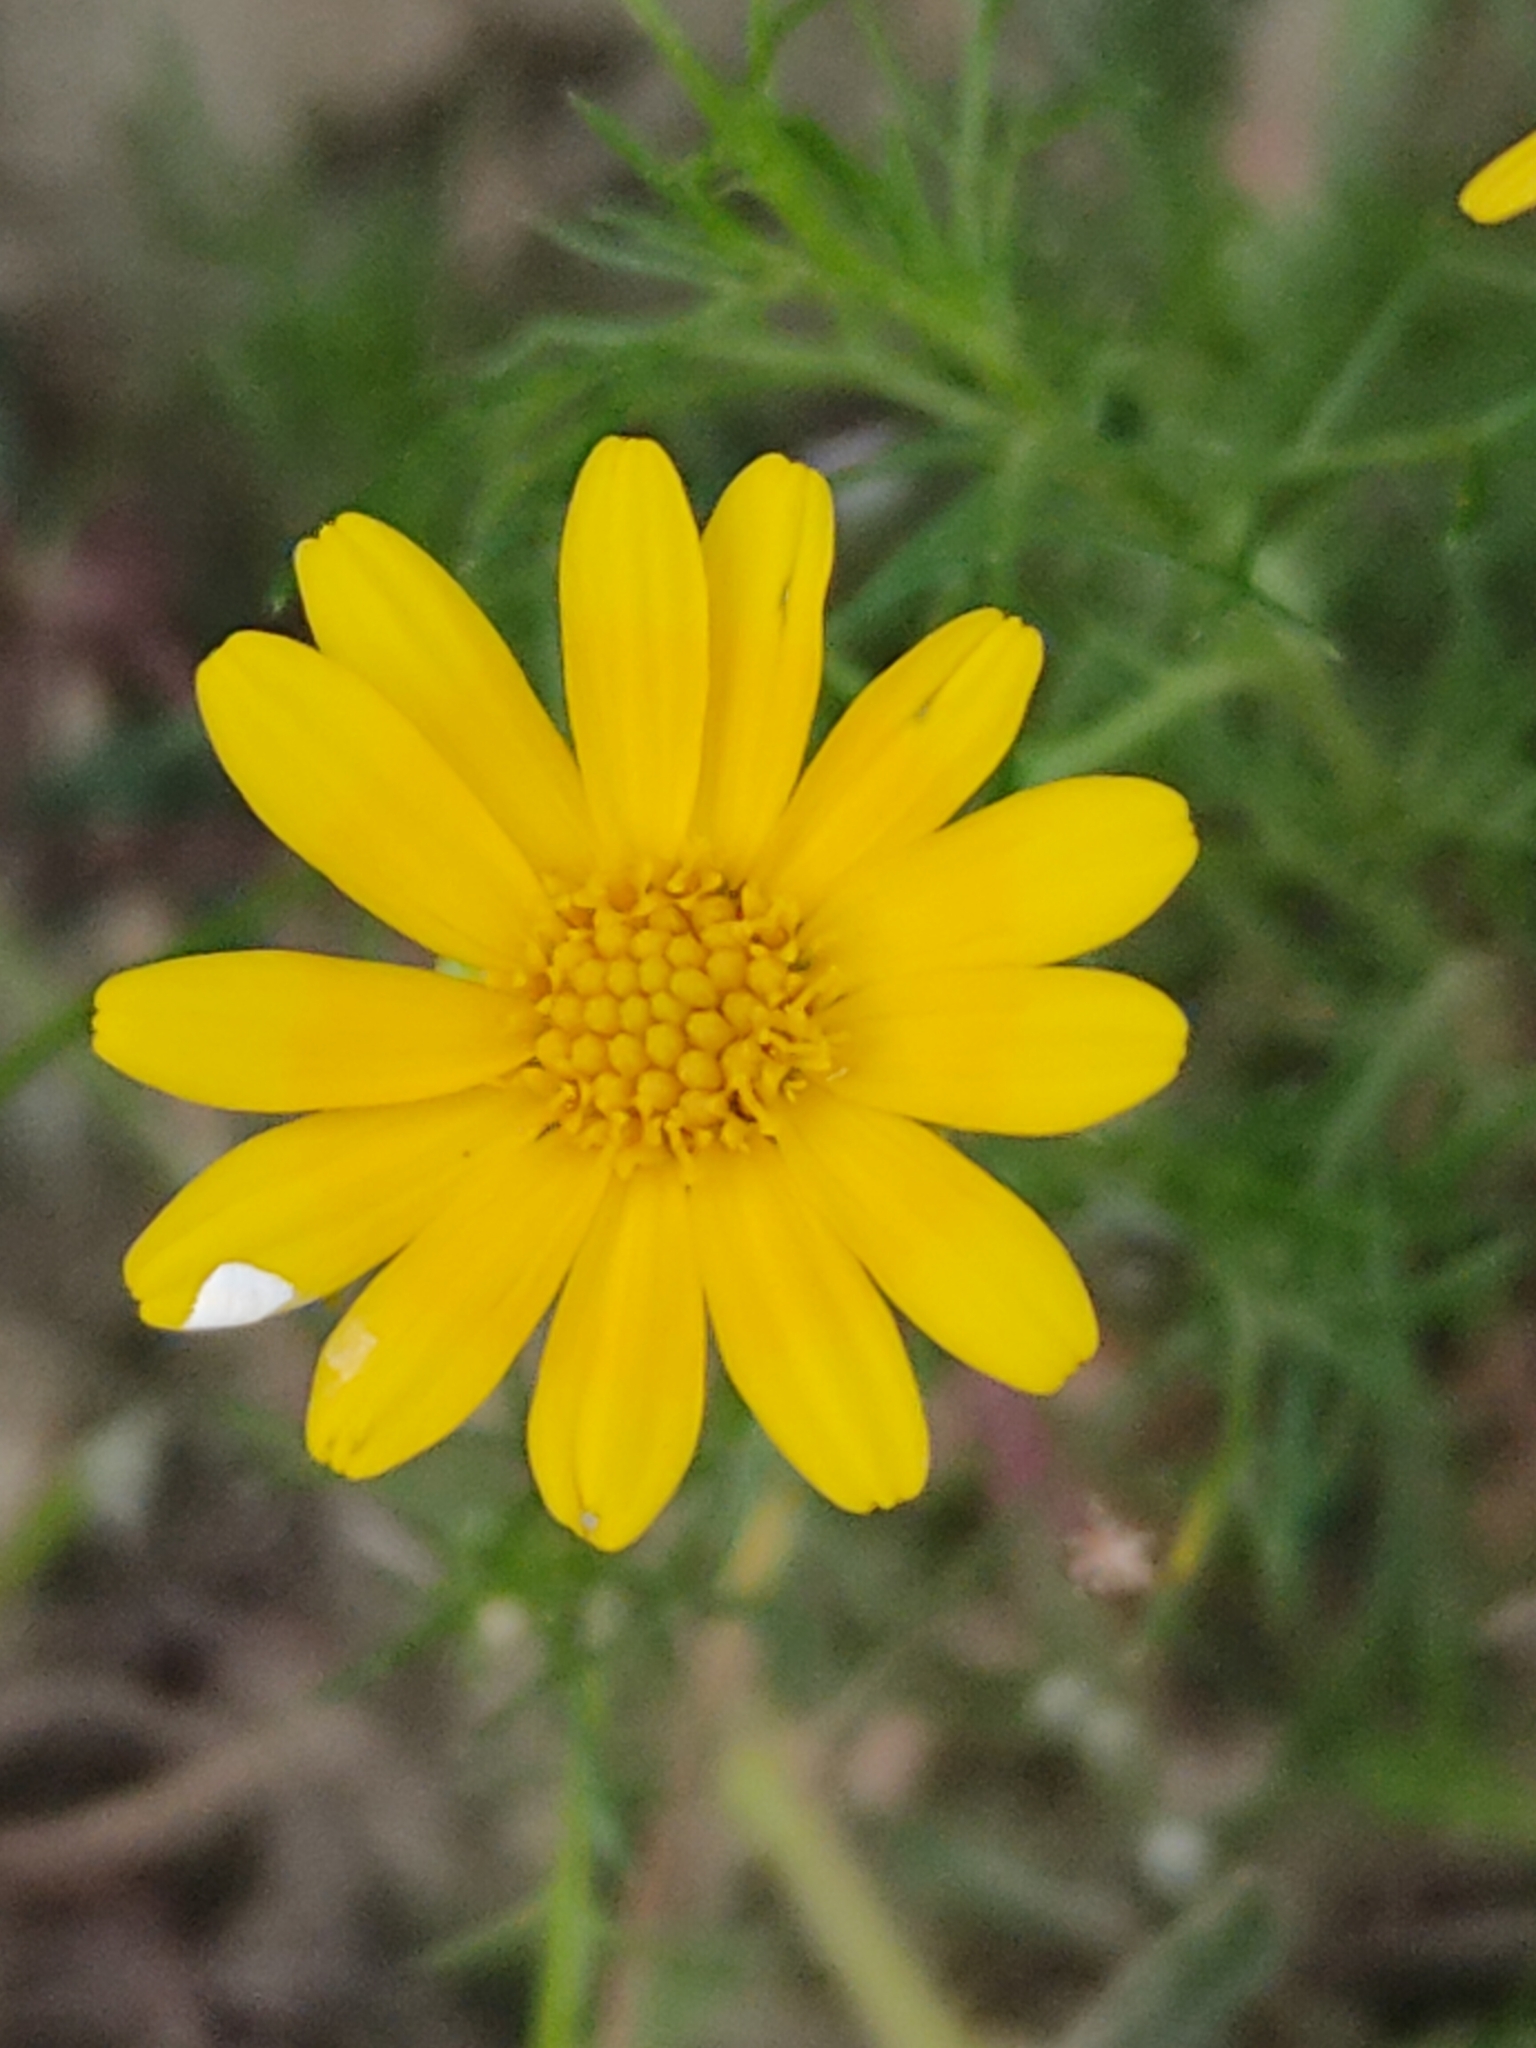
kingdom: Plantae
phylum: Tracheophyta
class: Magnoliopsida
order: Asterales
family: Asteraceae
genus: Thymophylla
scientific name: Thymophylla tenuiloba
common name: Dahlberg's daisy
